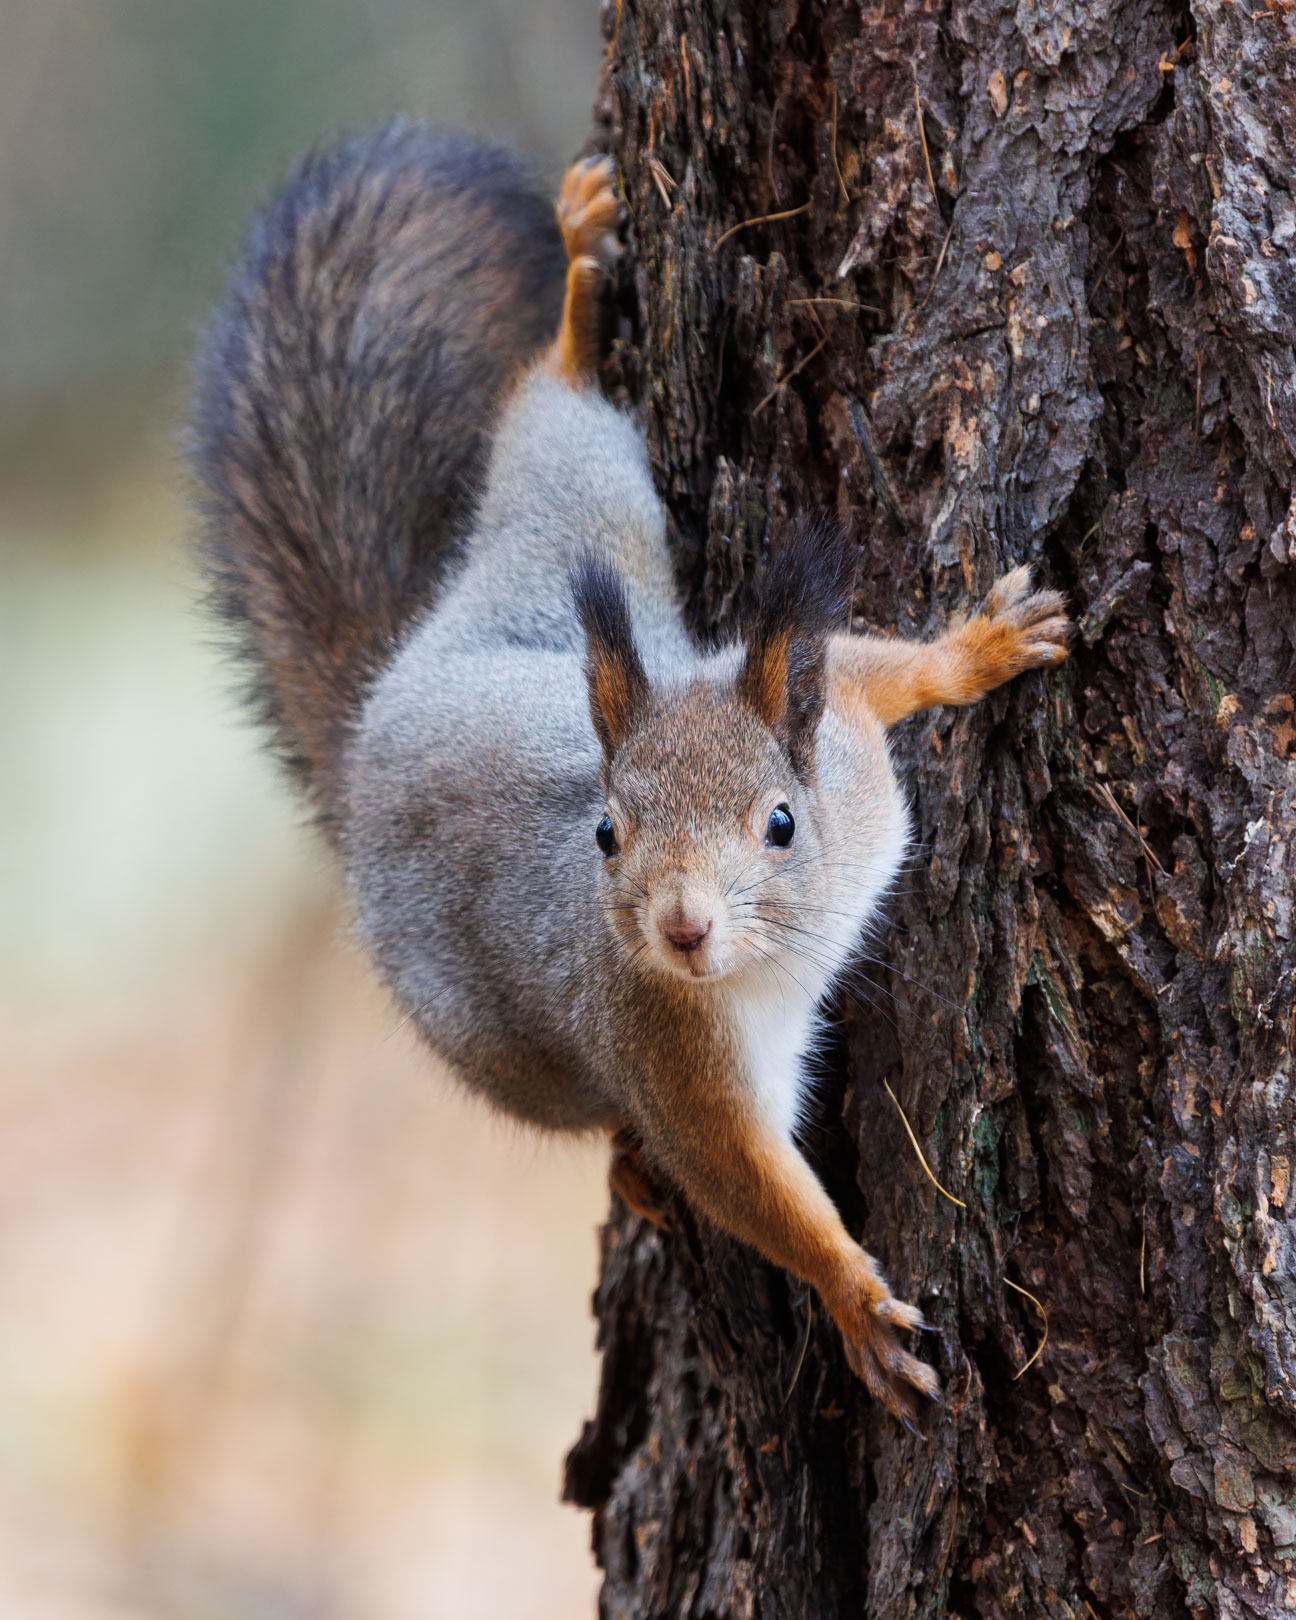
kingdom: Animalia
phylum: Chordata
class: Mammalia
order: Rodentia
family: Sciuridae
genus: Sciurus
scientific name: Sciurus vulgaris
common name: Eurasian red squirrel
